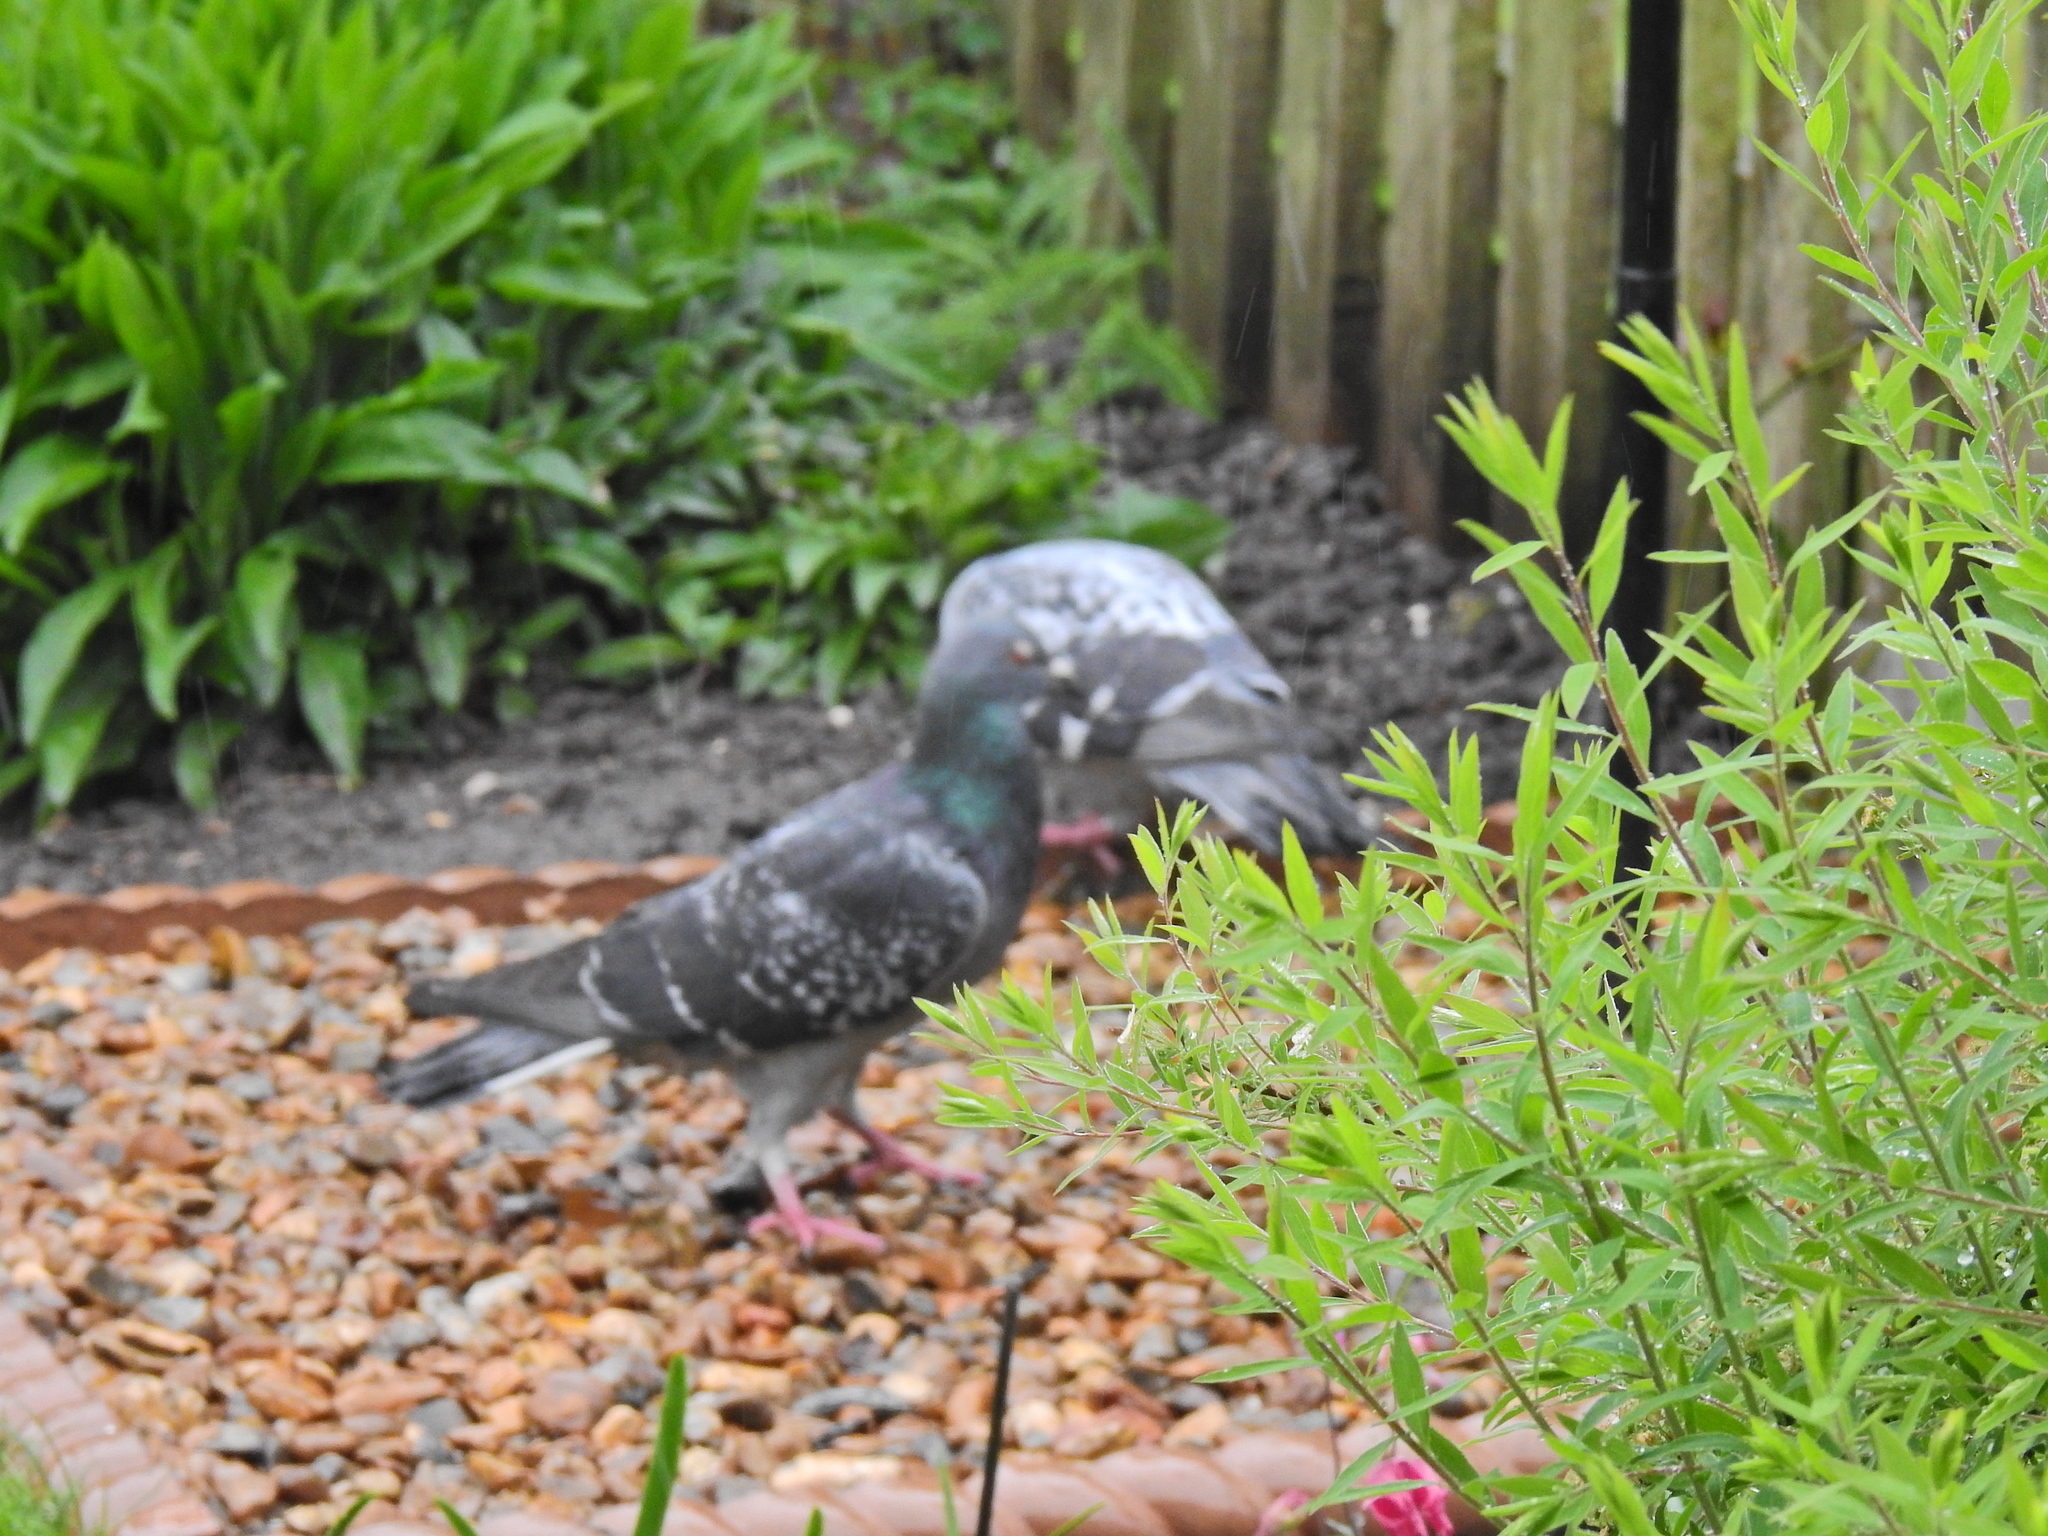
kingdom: Animalia
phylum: Chordata
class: Aves
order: Columbiformes
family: Columbidae
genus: Columba
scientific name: Columba livia
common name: Rock pigeon
